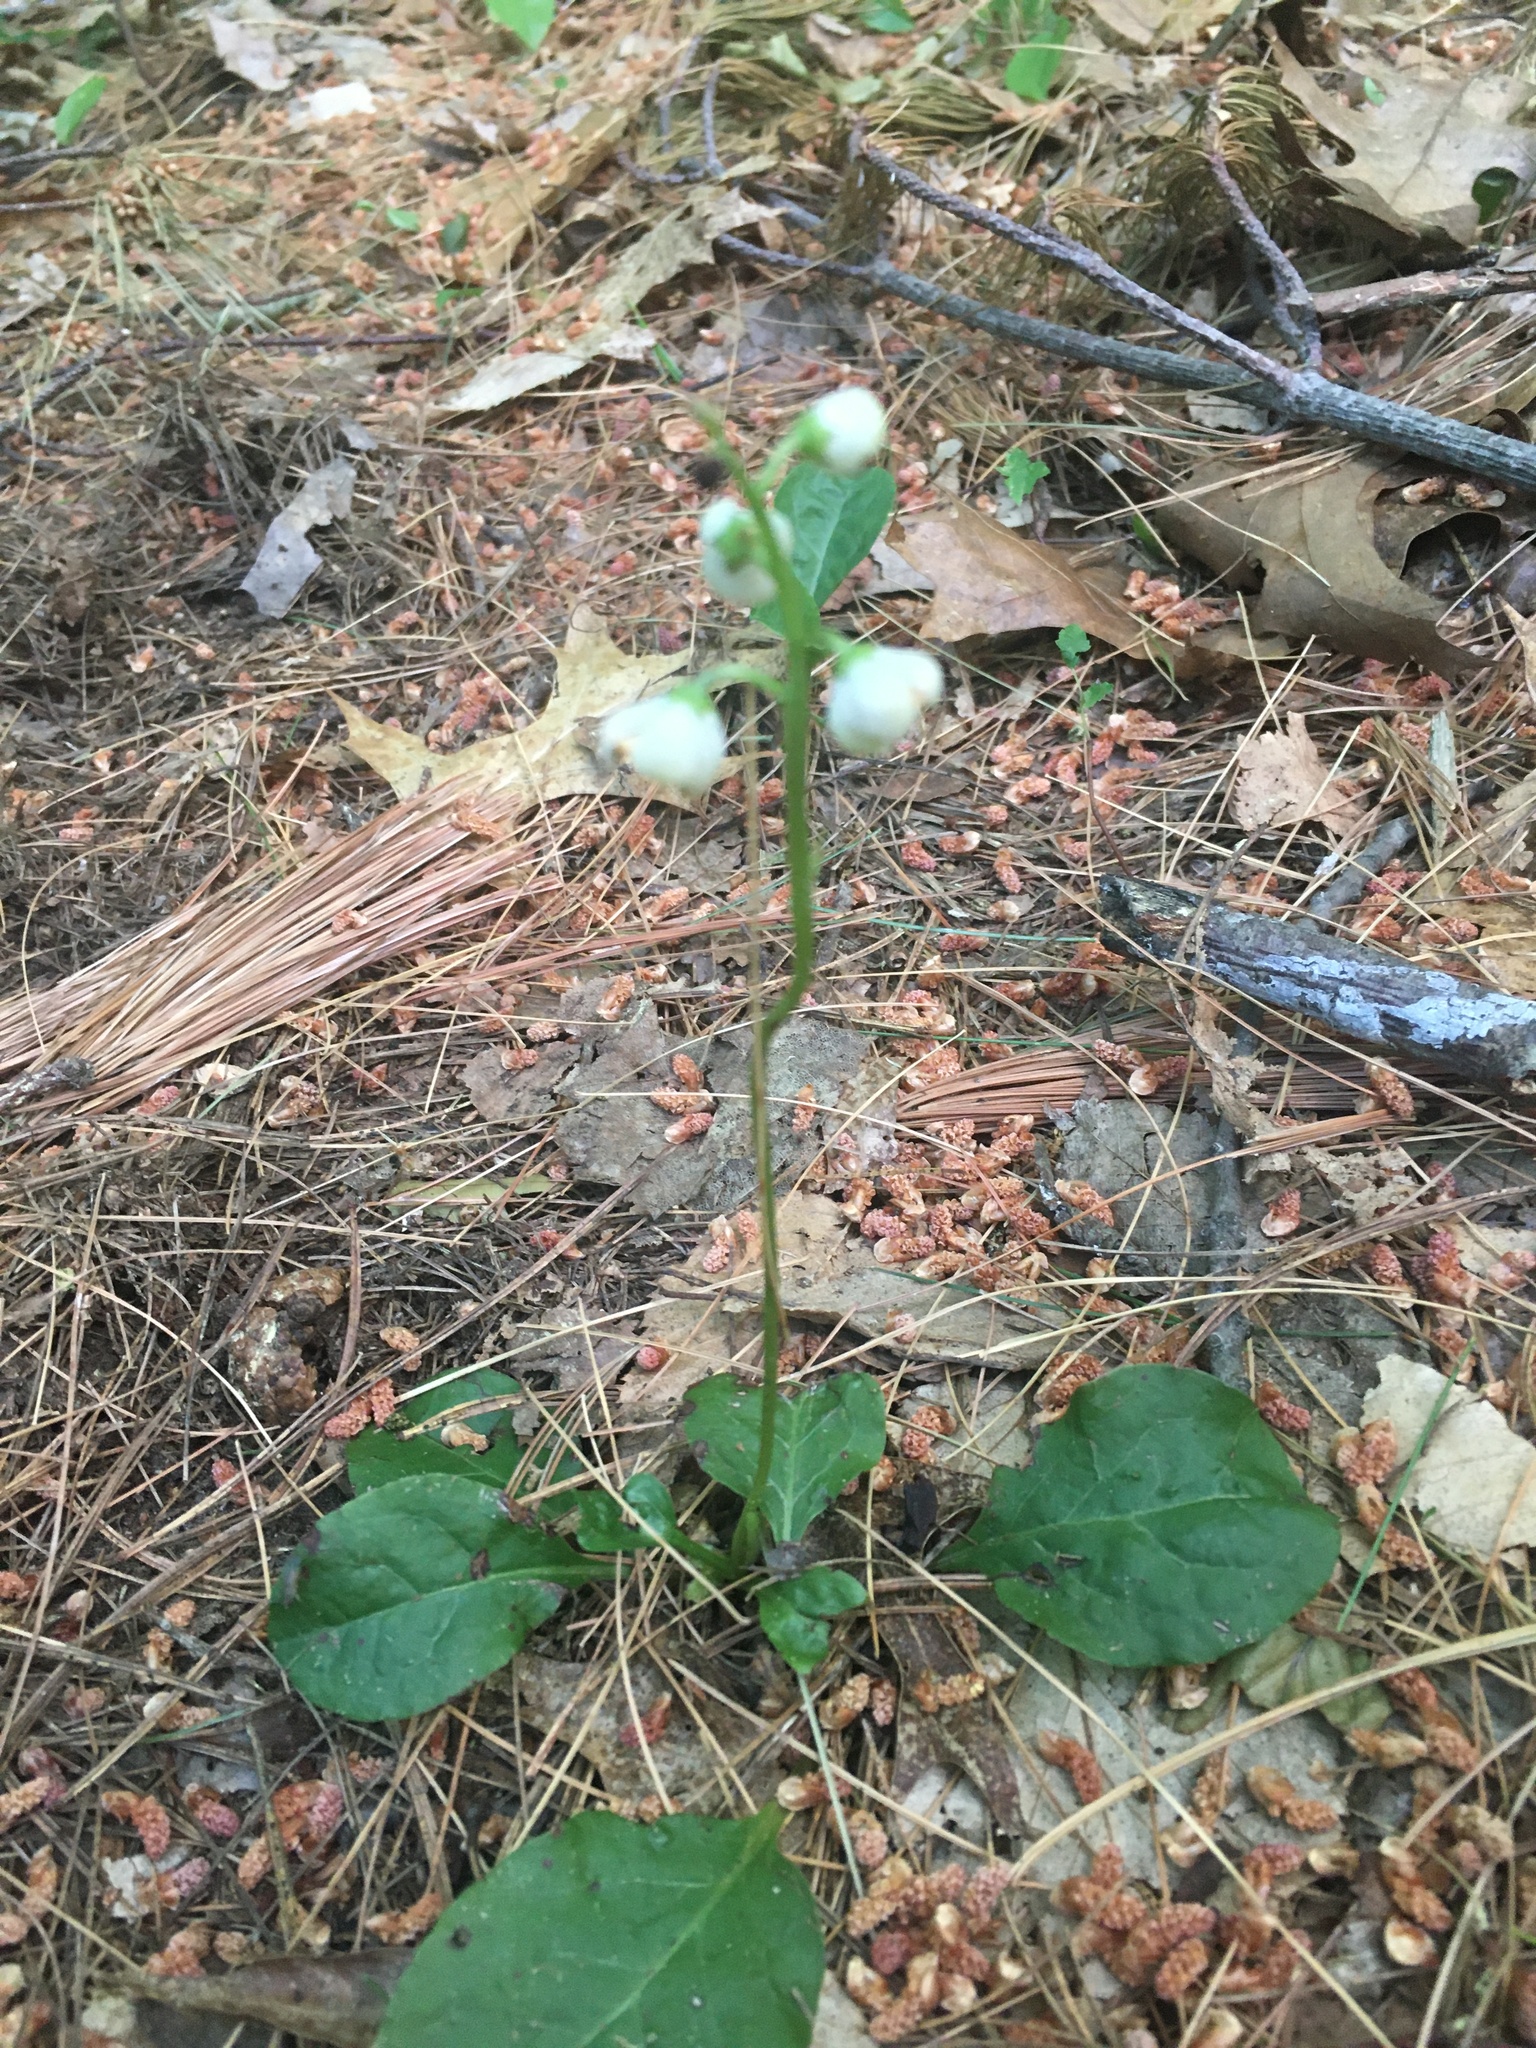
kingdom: Plantae
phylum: Tracheophyta
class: Magnoliopsida
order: Ericales
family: Ericaceae
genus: Pyrola
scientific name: Pyrola elliptica
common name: Shinleaf
